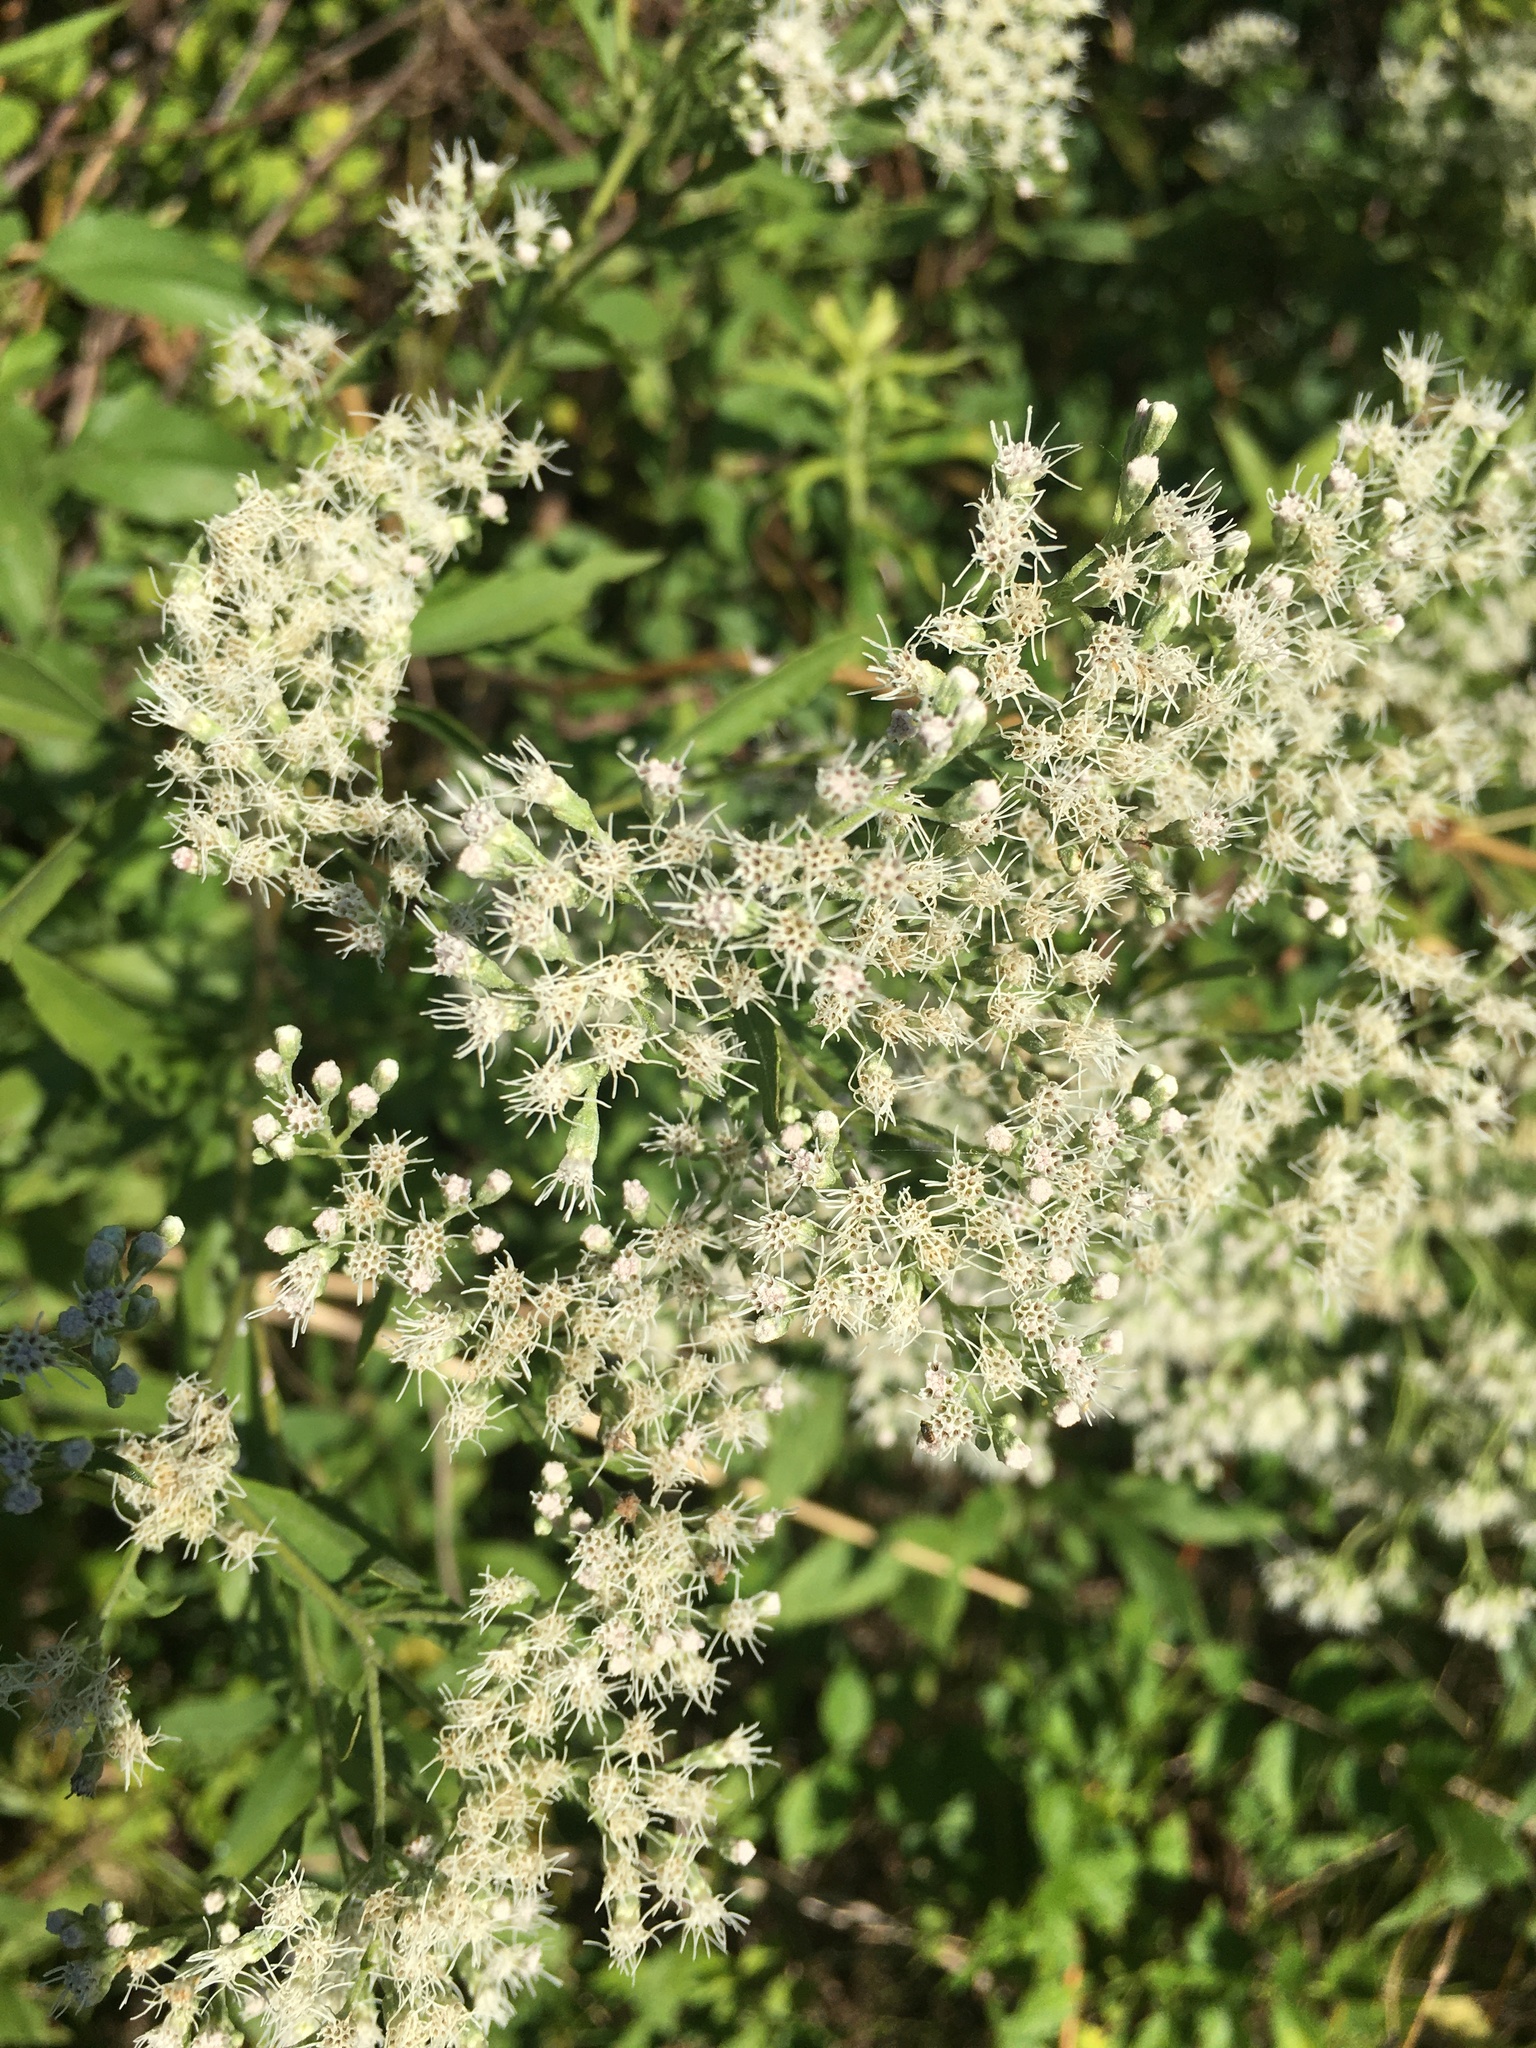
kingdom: Plantae
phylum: Tracheophyta
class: Magnoliopsida
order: Asterales
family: Asteraceae
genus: Eupatorium
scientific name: Eupatorium serotinum
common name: Late boneset
